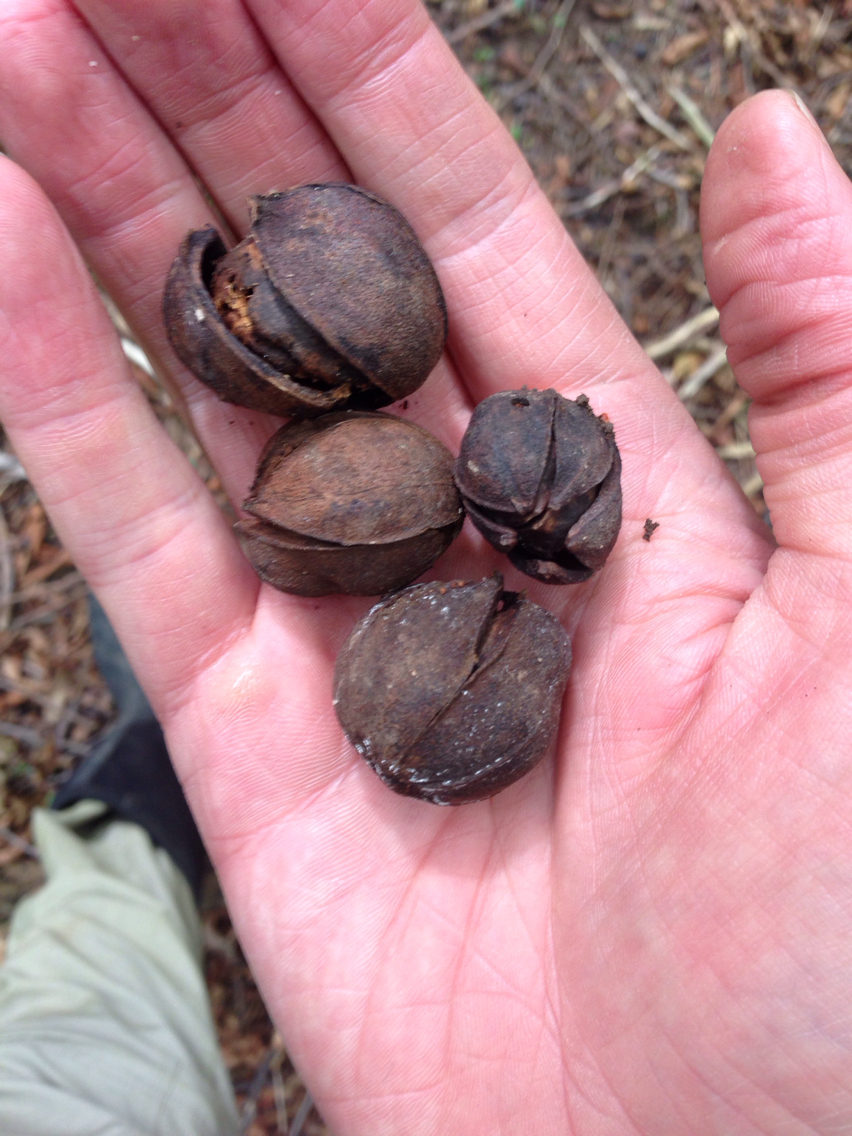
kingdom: Plantae
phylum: Tracheophyta
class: Magnoliopsida
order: Fagales
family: Juglandaceae
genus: Carya
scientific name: Carya cordiformis
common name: Bitternut hickory
